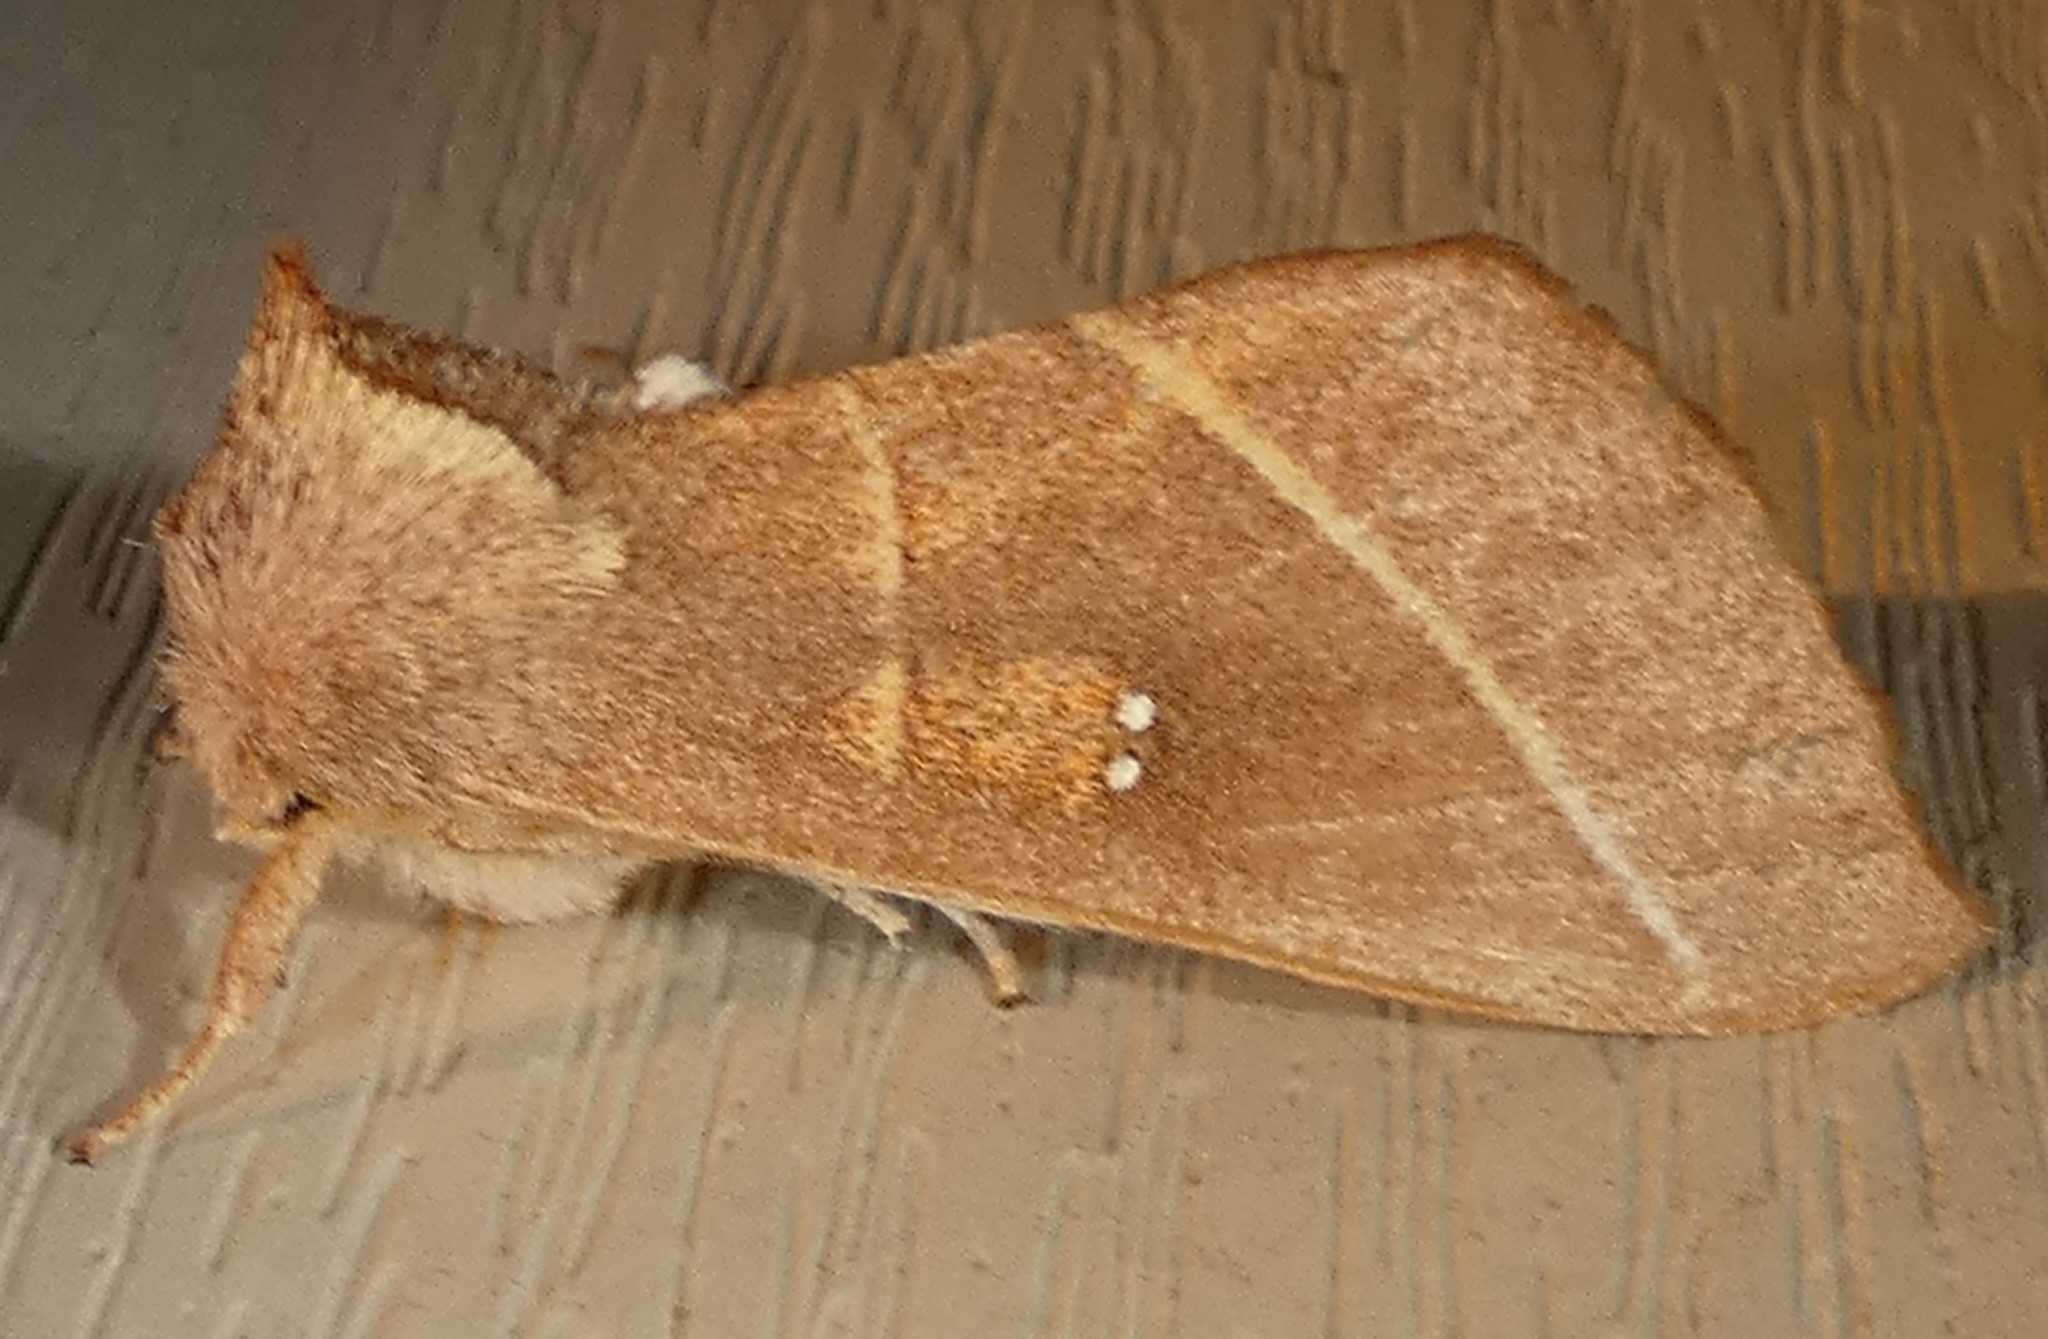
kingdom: Animalia
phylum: Arthropoda
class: Insecta
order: Lepidoptera
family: Notodontidae
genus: Nadata
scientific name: Nadata gibbosa
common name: White-dotted prominent
